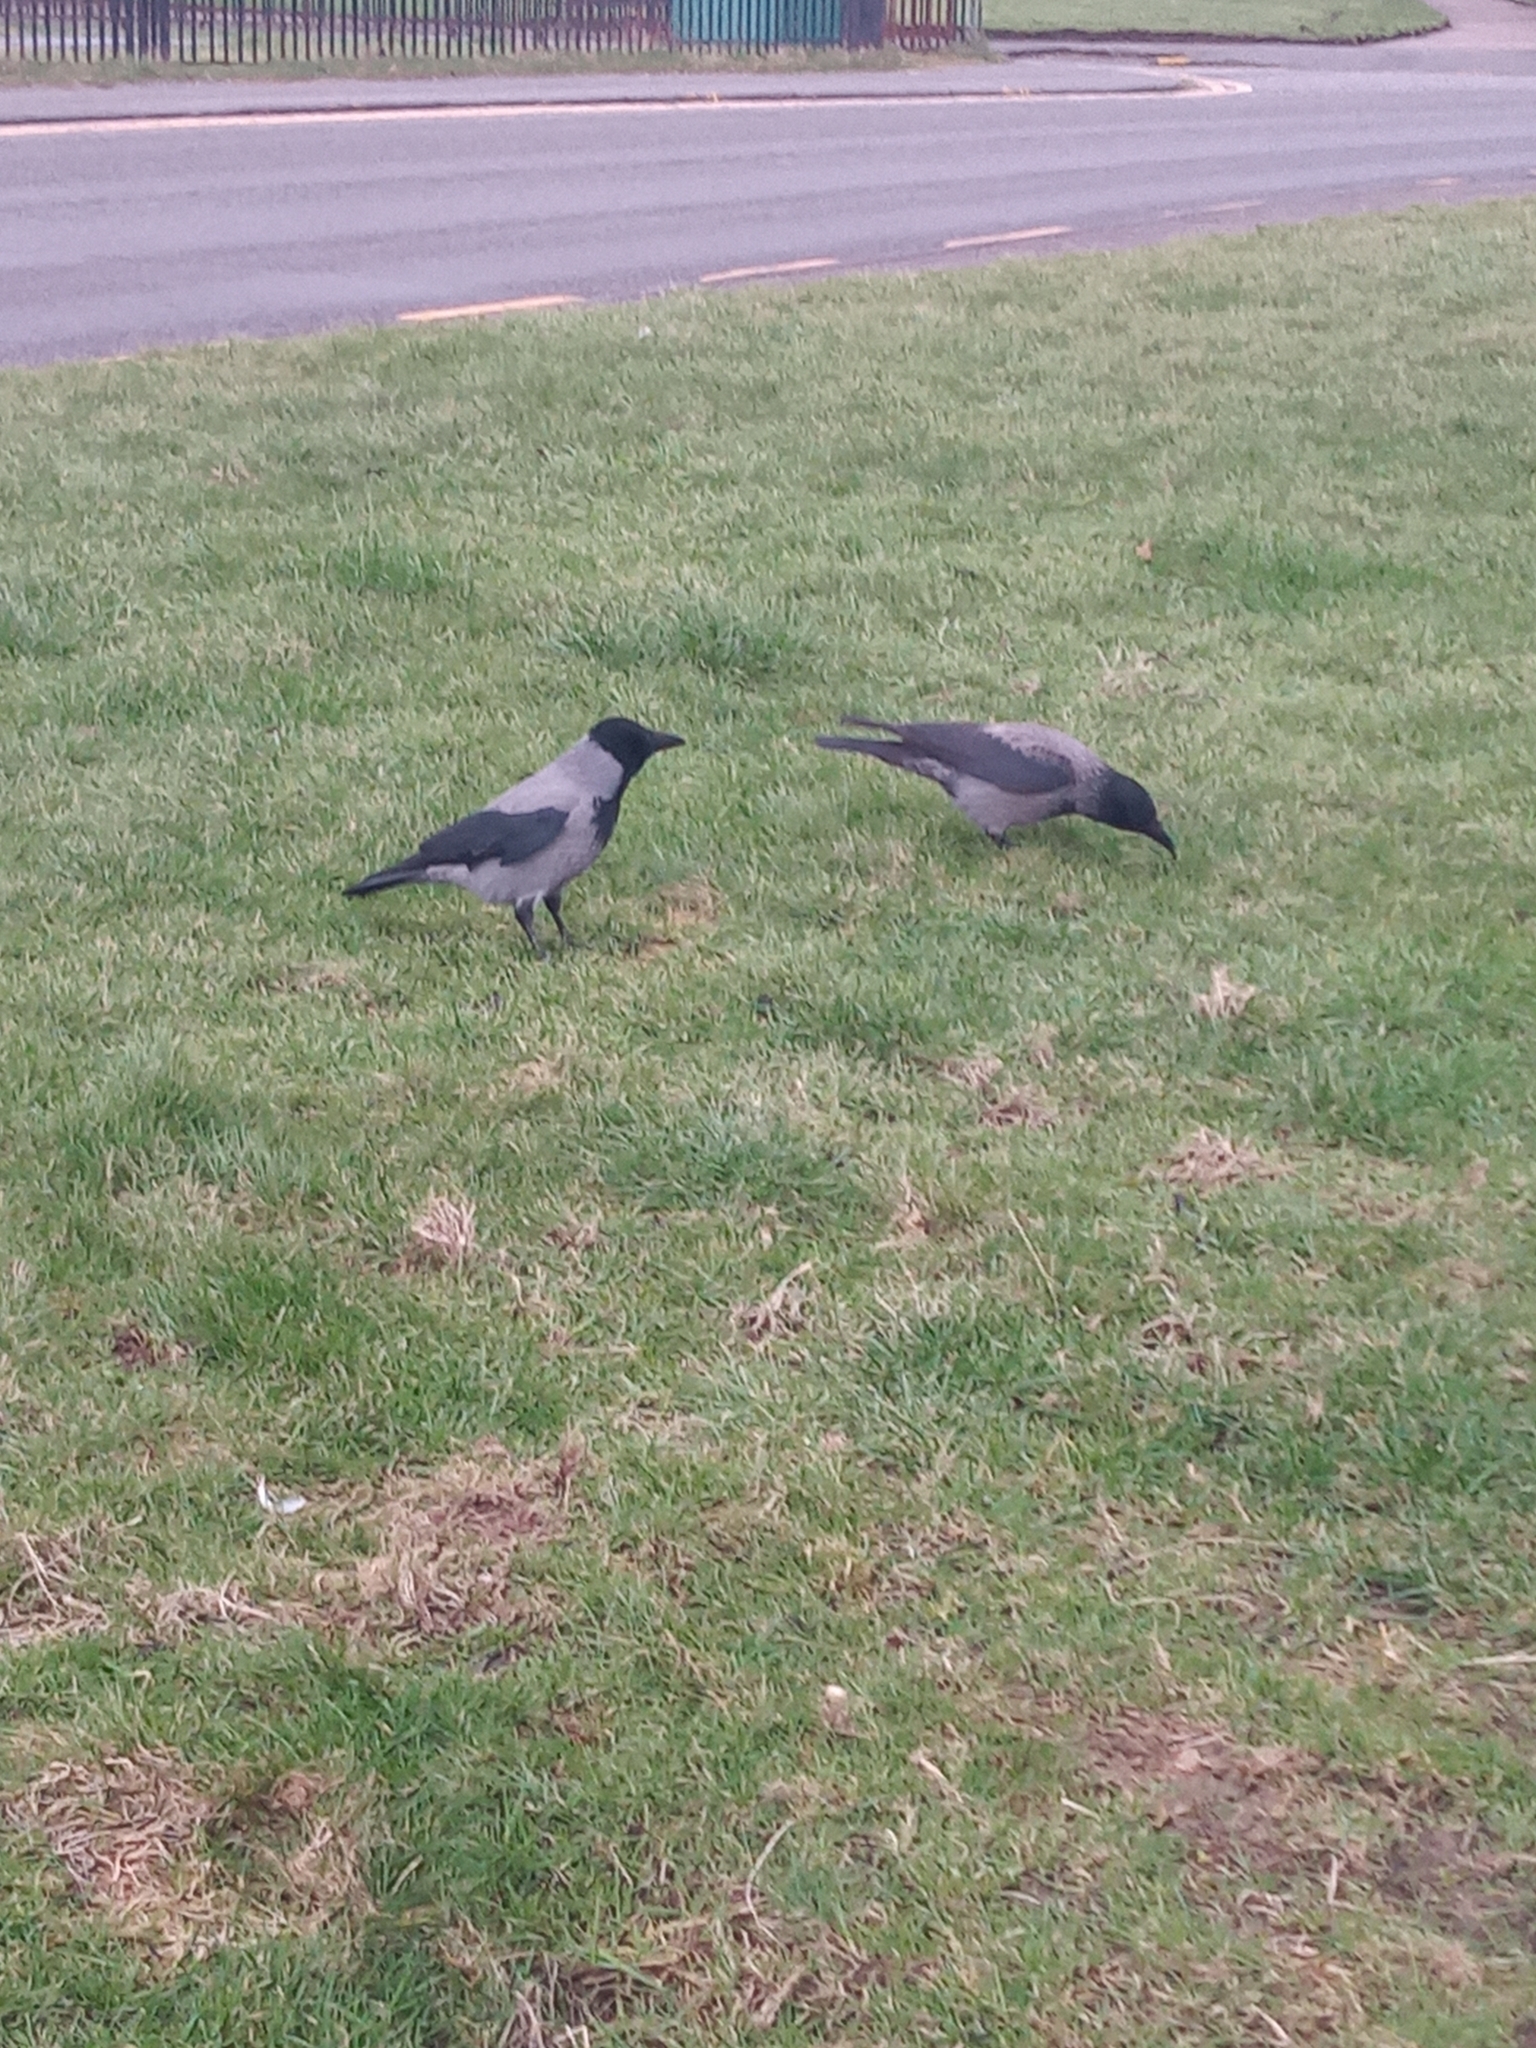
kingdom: Animalia
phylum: Chordata
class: Aves
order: Passeriformes
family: Corvidae
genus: Corvus
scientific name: Corvus cornix
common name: Hooded crow
